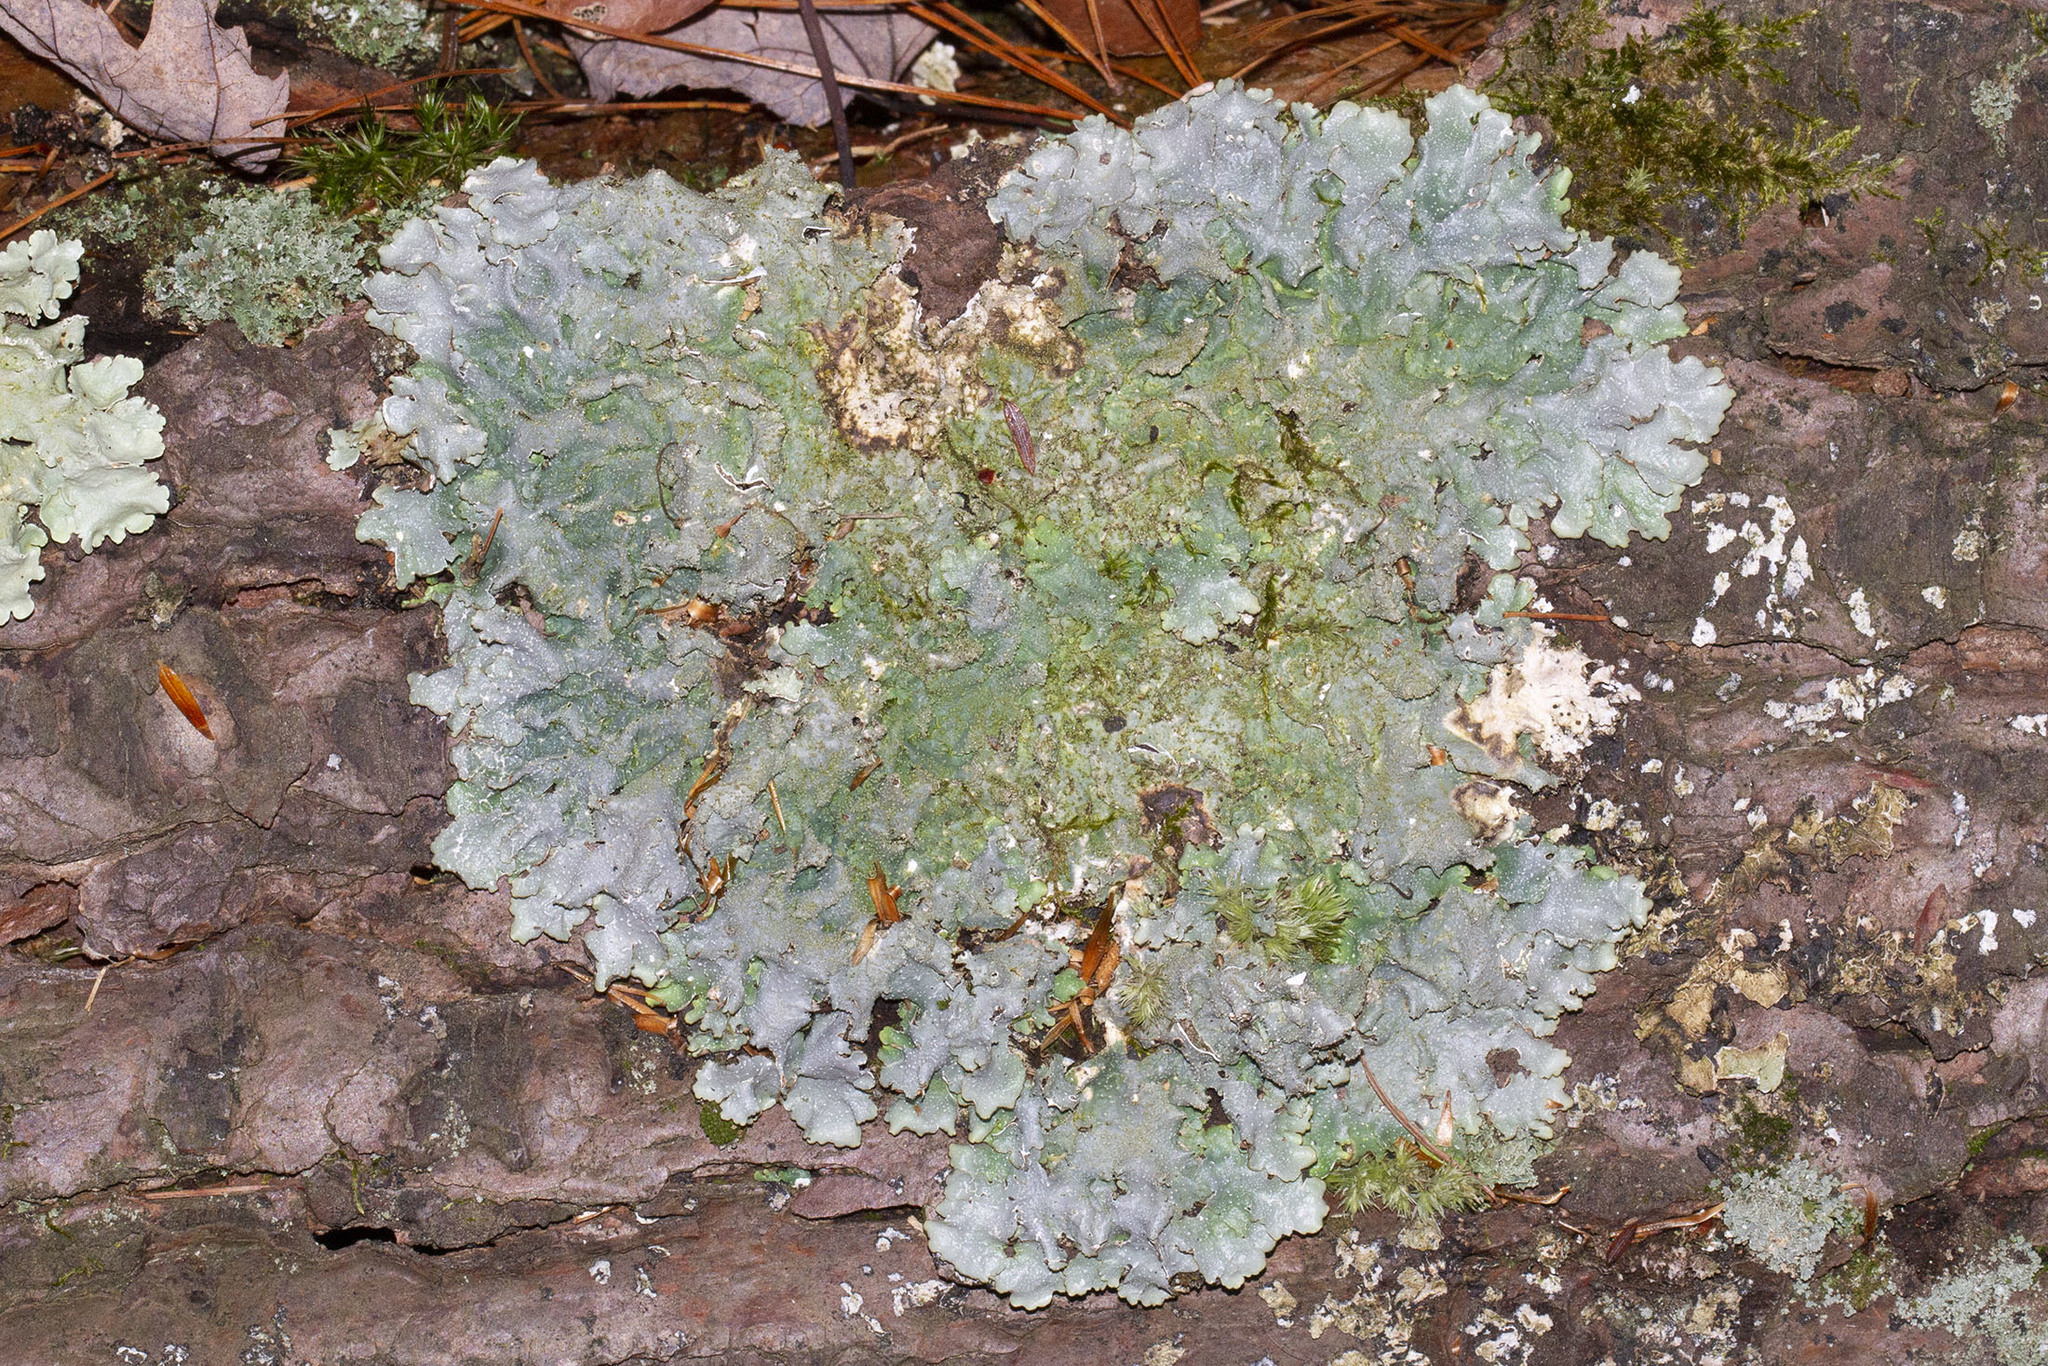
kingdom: Fungi
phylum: Ascomycota
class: Lecanoromycetes
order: Lecanorales
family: Parmeliaceae
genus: Punctelia
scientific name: Punctelia rudecta
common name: Rough speckled shield lichen
